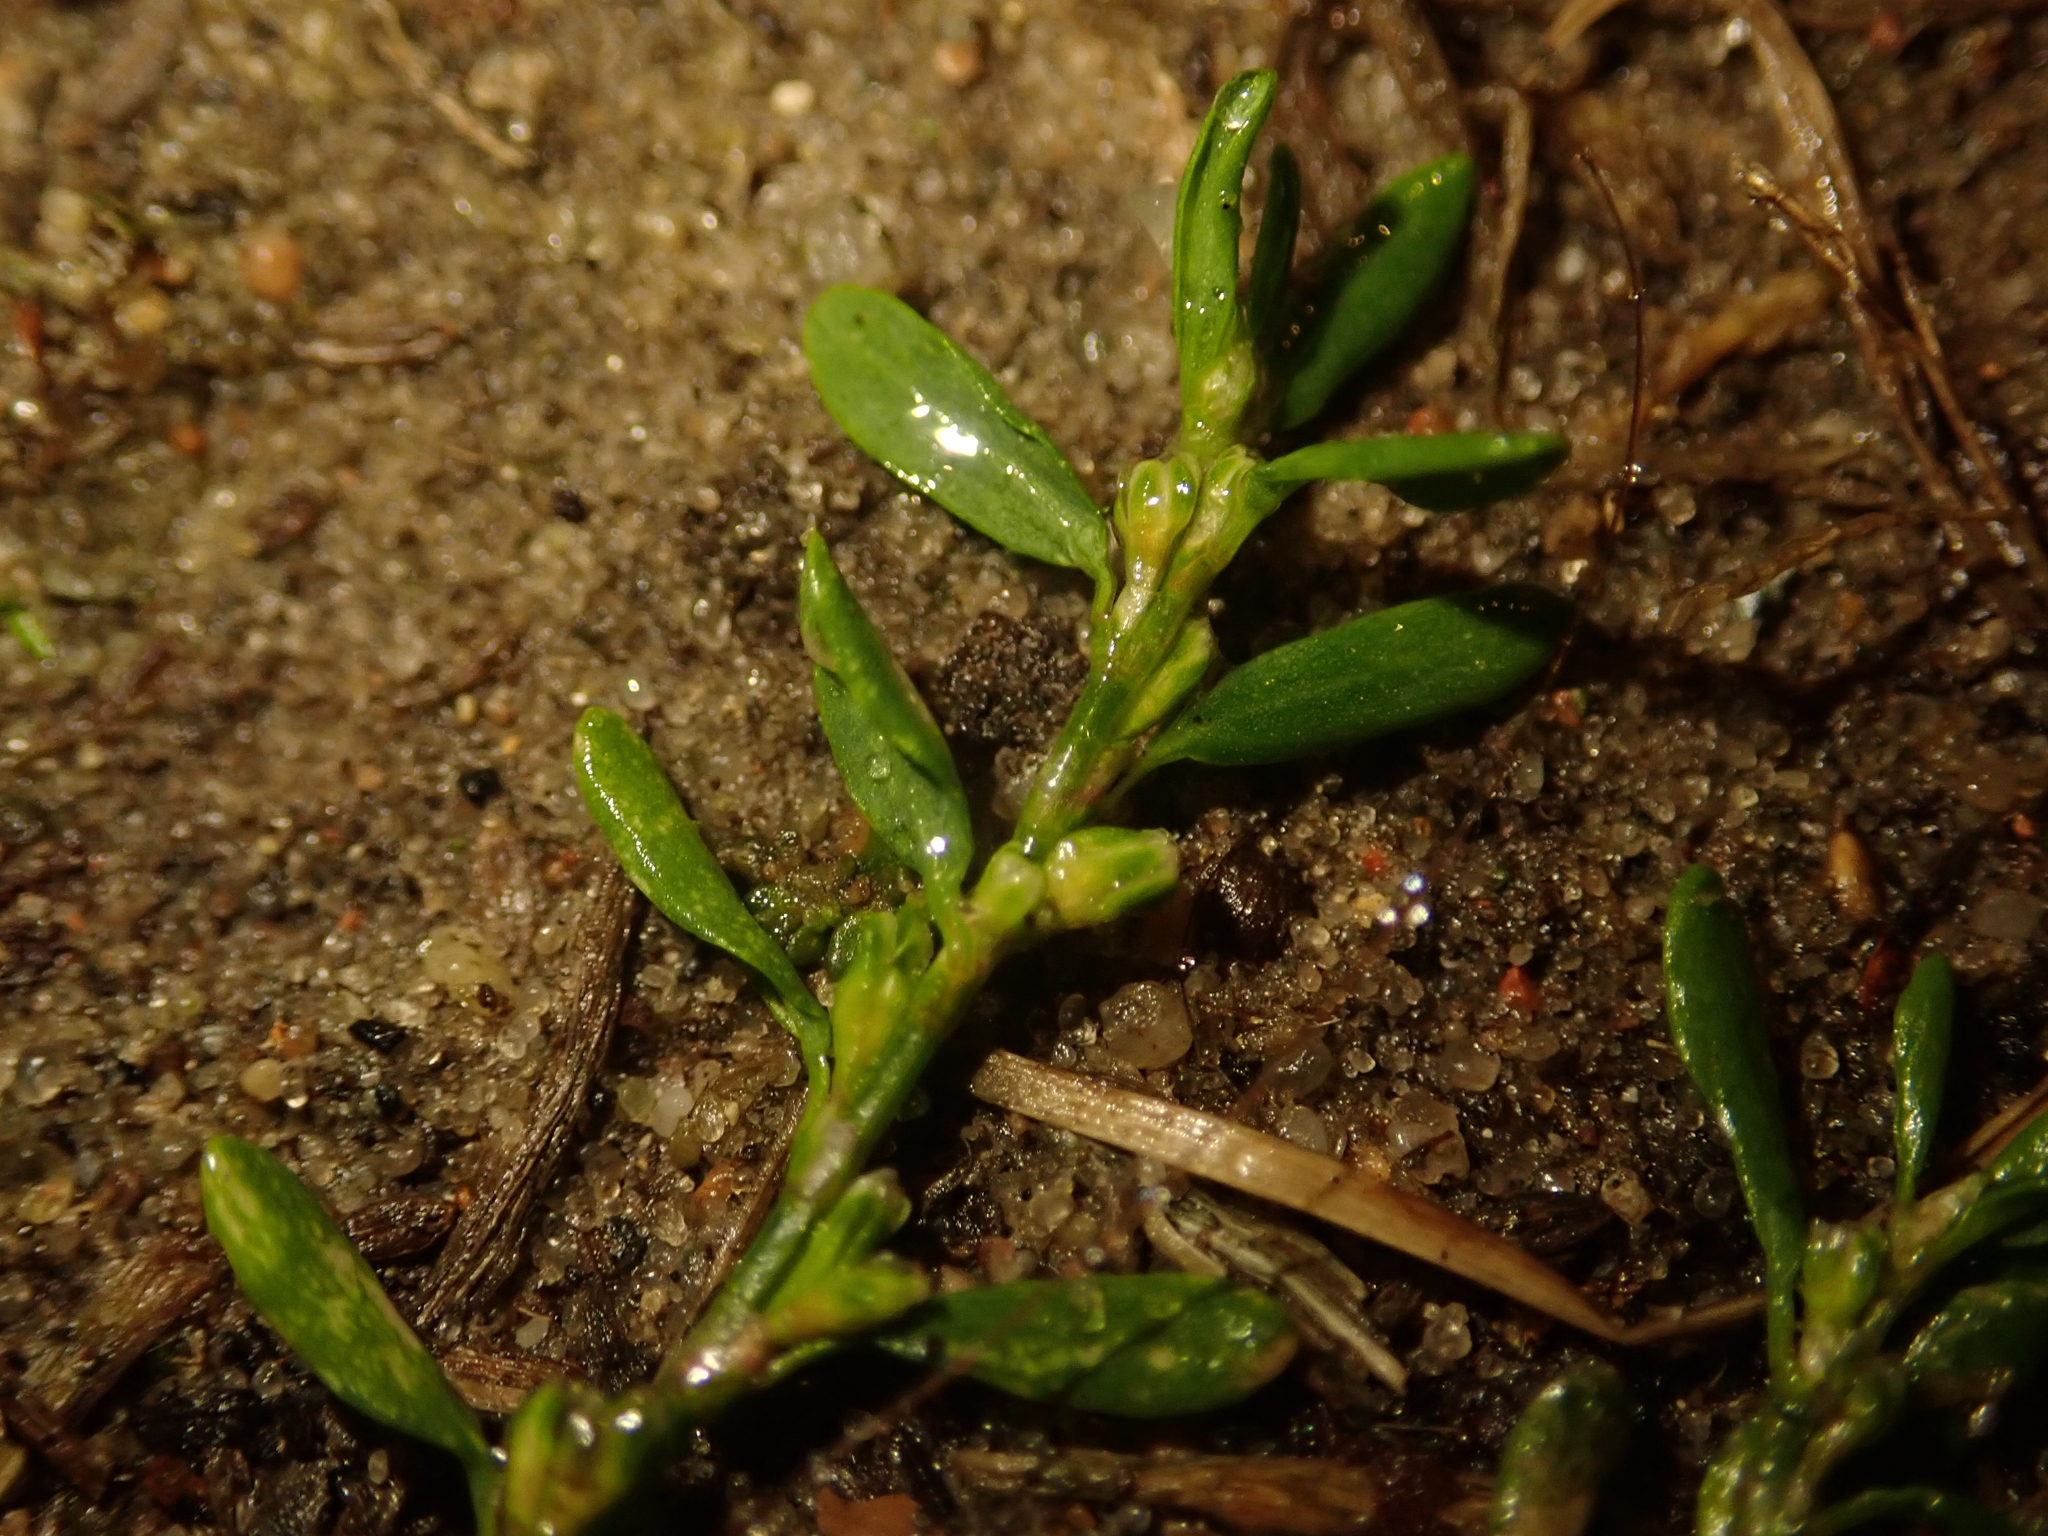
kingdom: Plantae
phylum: Tracheophyta
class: Magnoliopsida
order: Caryophyllales
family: Polygonaceae
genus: Polygonum
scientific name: Polygonum aviculare
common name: Prostrate knotweed
